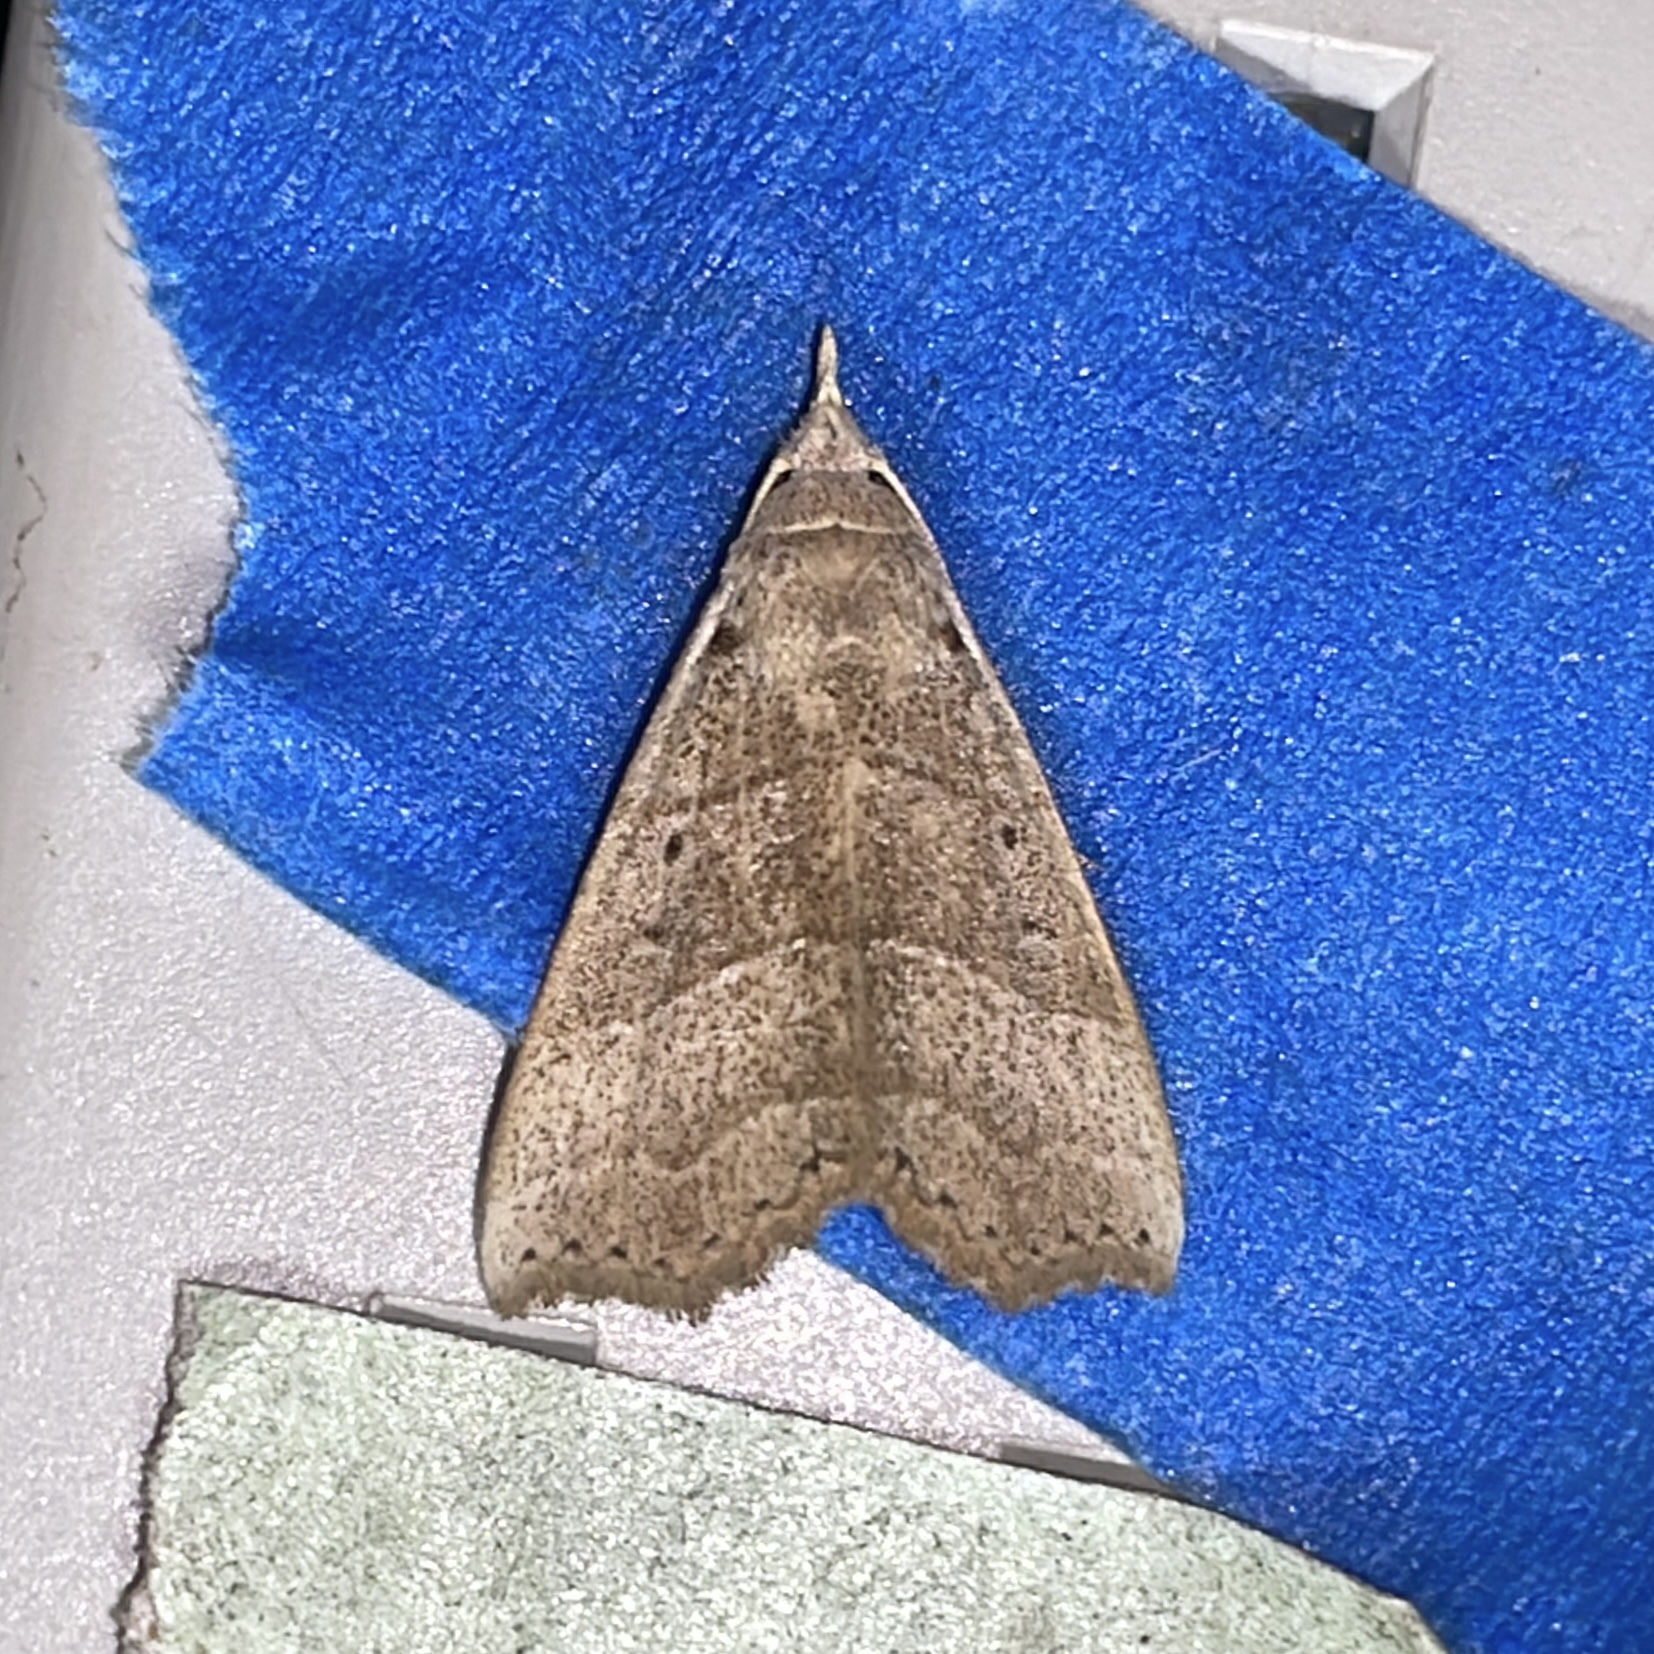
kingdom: Animalia
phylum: Arthropoda
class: Insecta
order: Lepidoptera
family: Erebidae
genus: Hyamia
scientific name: Hyamia Ensipia trilineata
